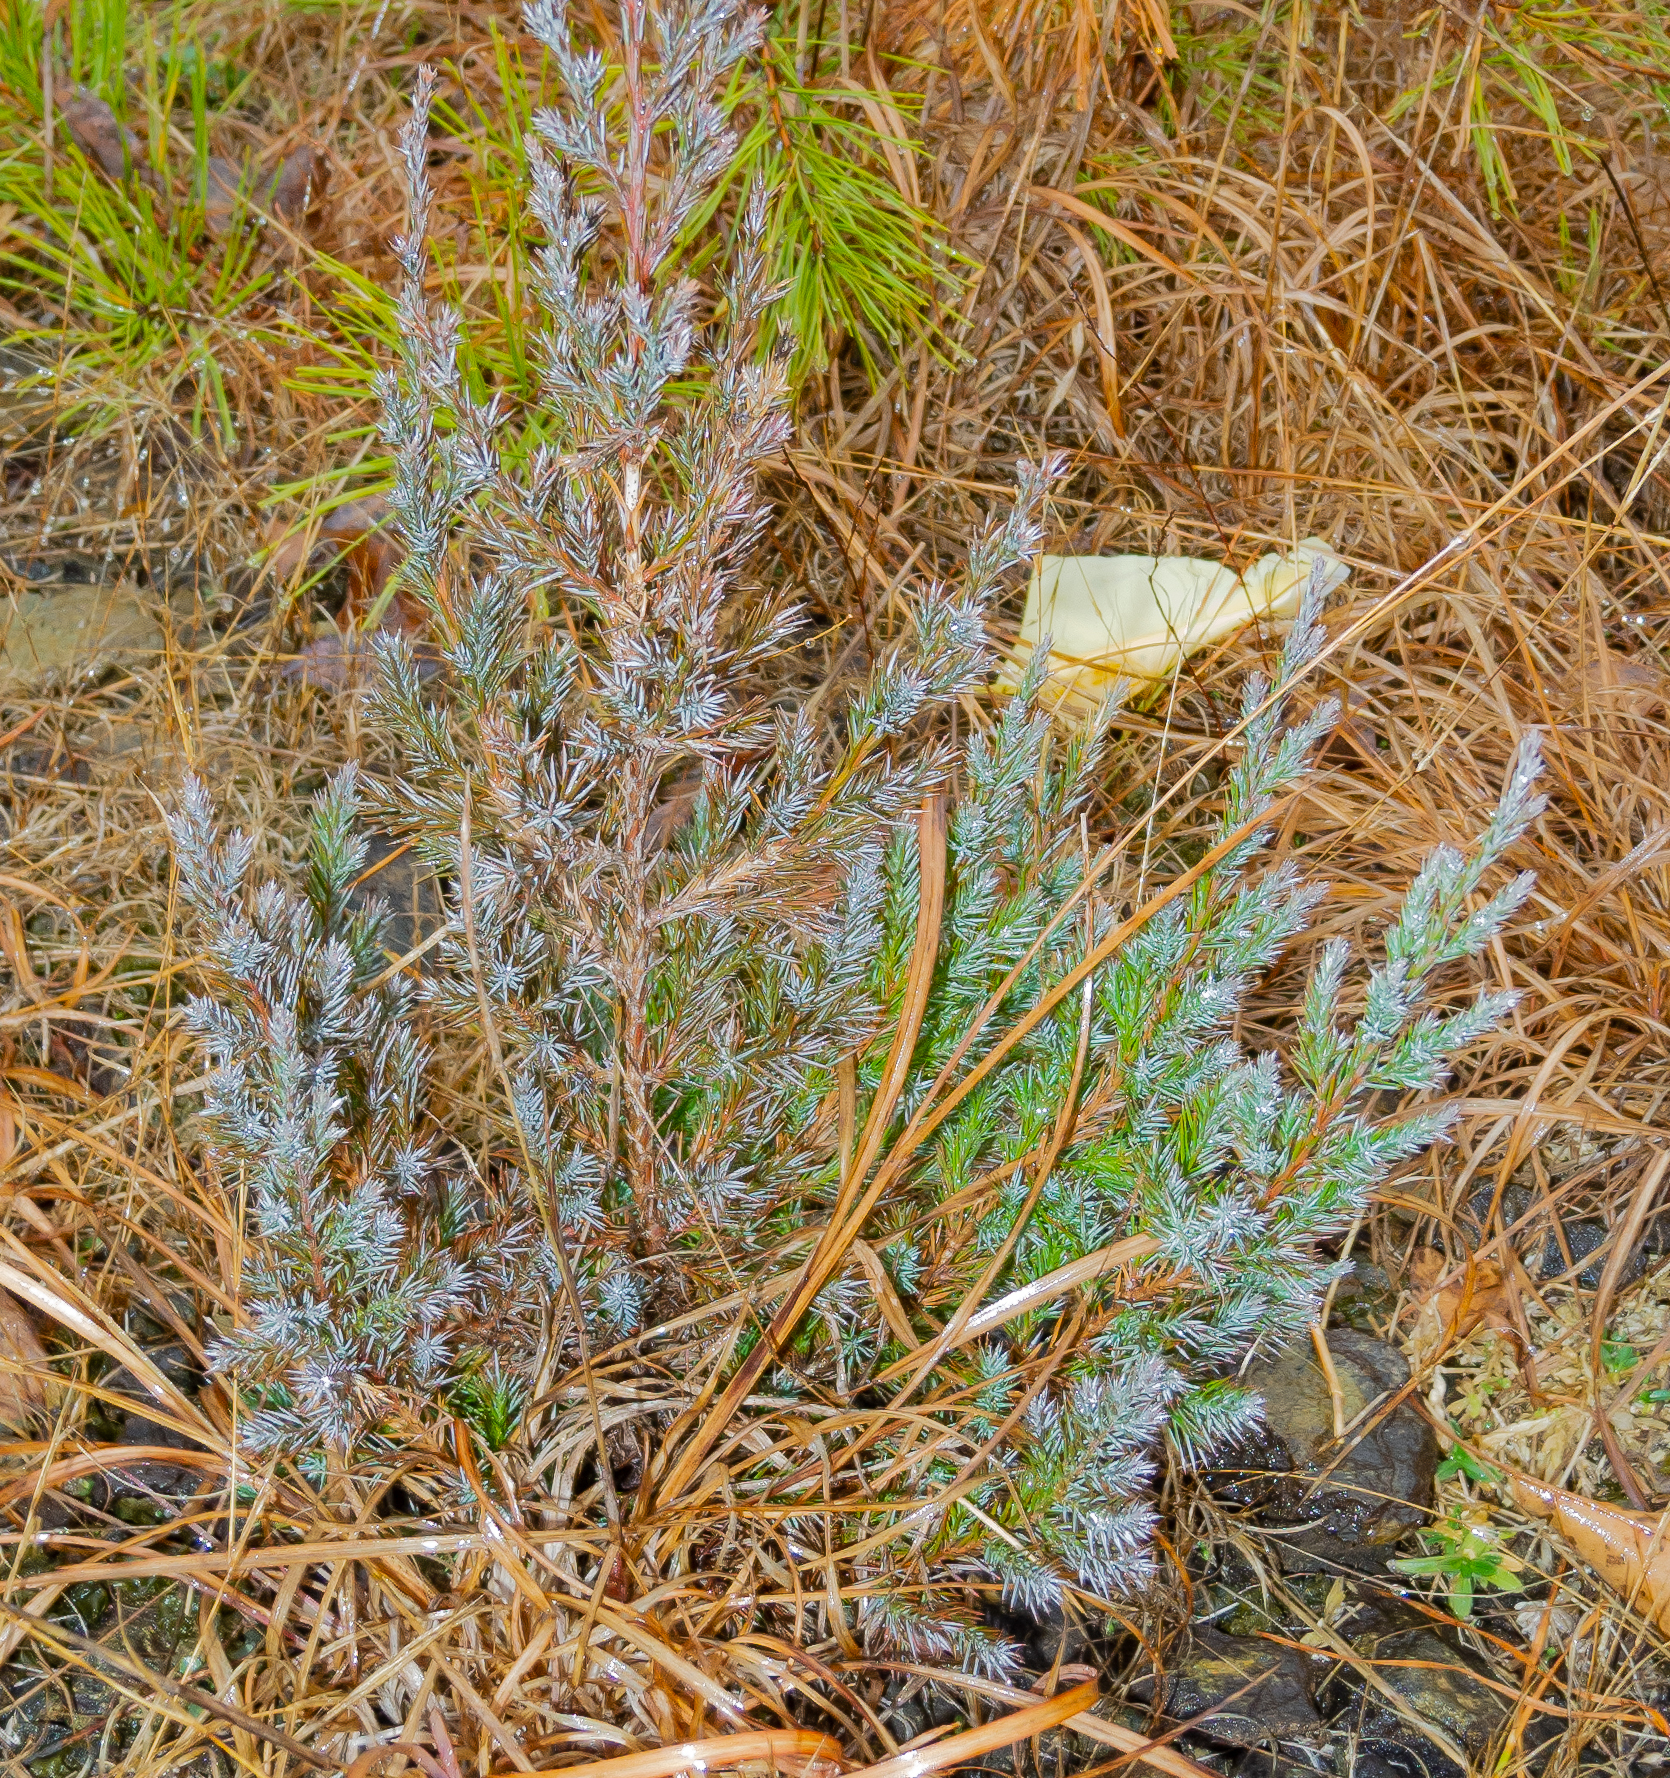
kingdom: Plantae
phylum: Tracheophyta
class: Pinopsida
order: Pinales
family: Cupressaceae
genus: Juniperus
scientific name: Juniperus virginiana
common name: Red juniper
